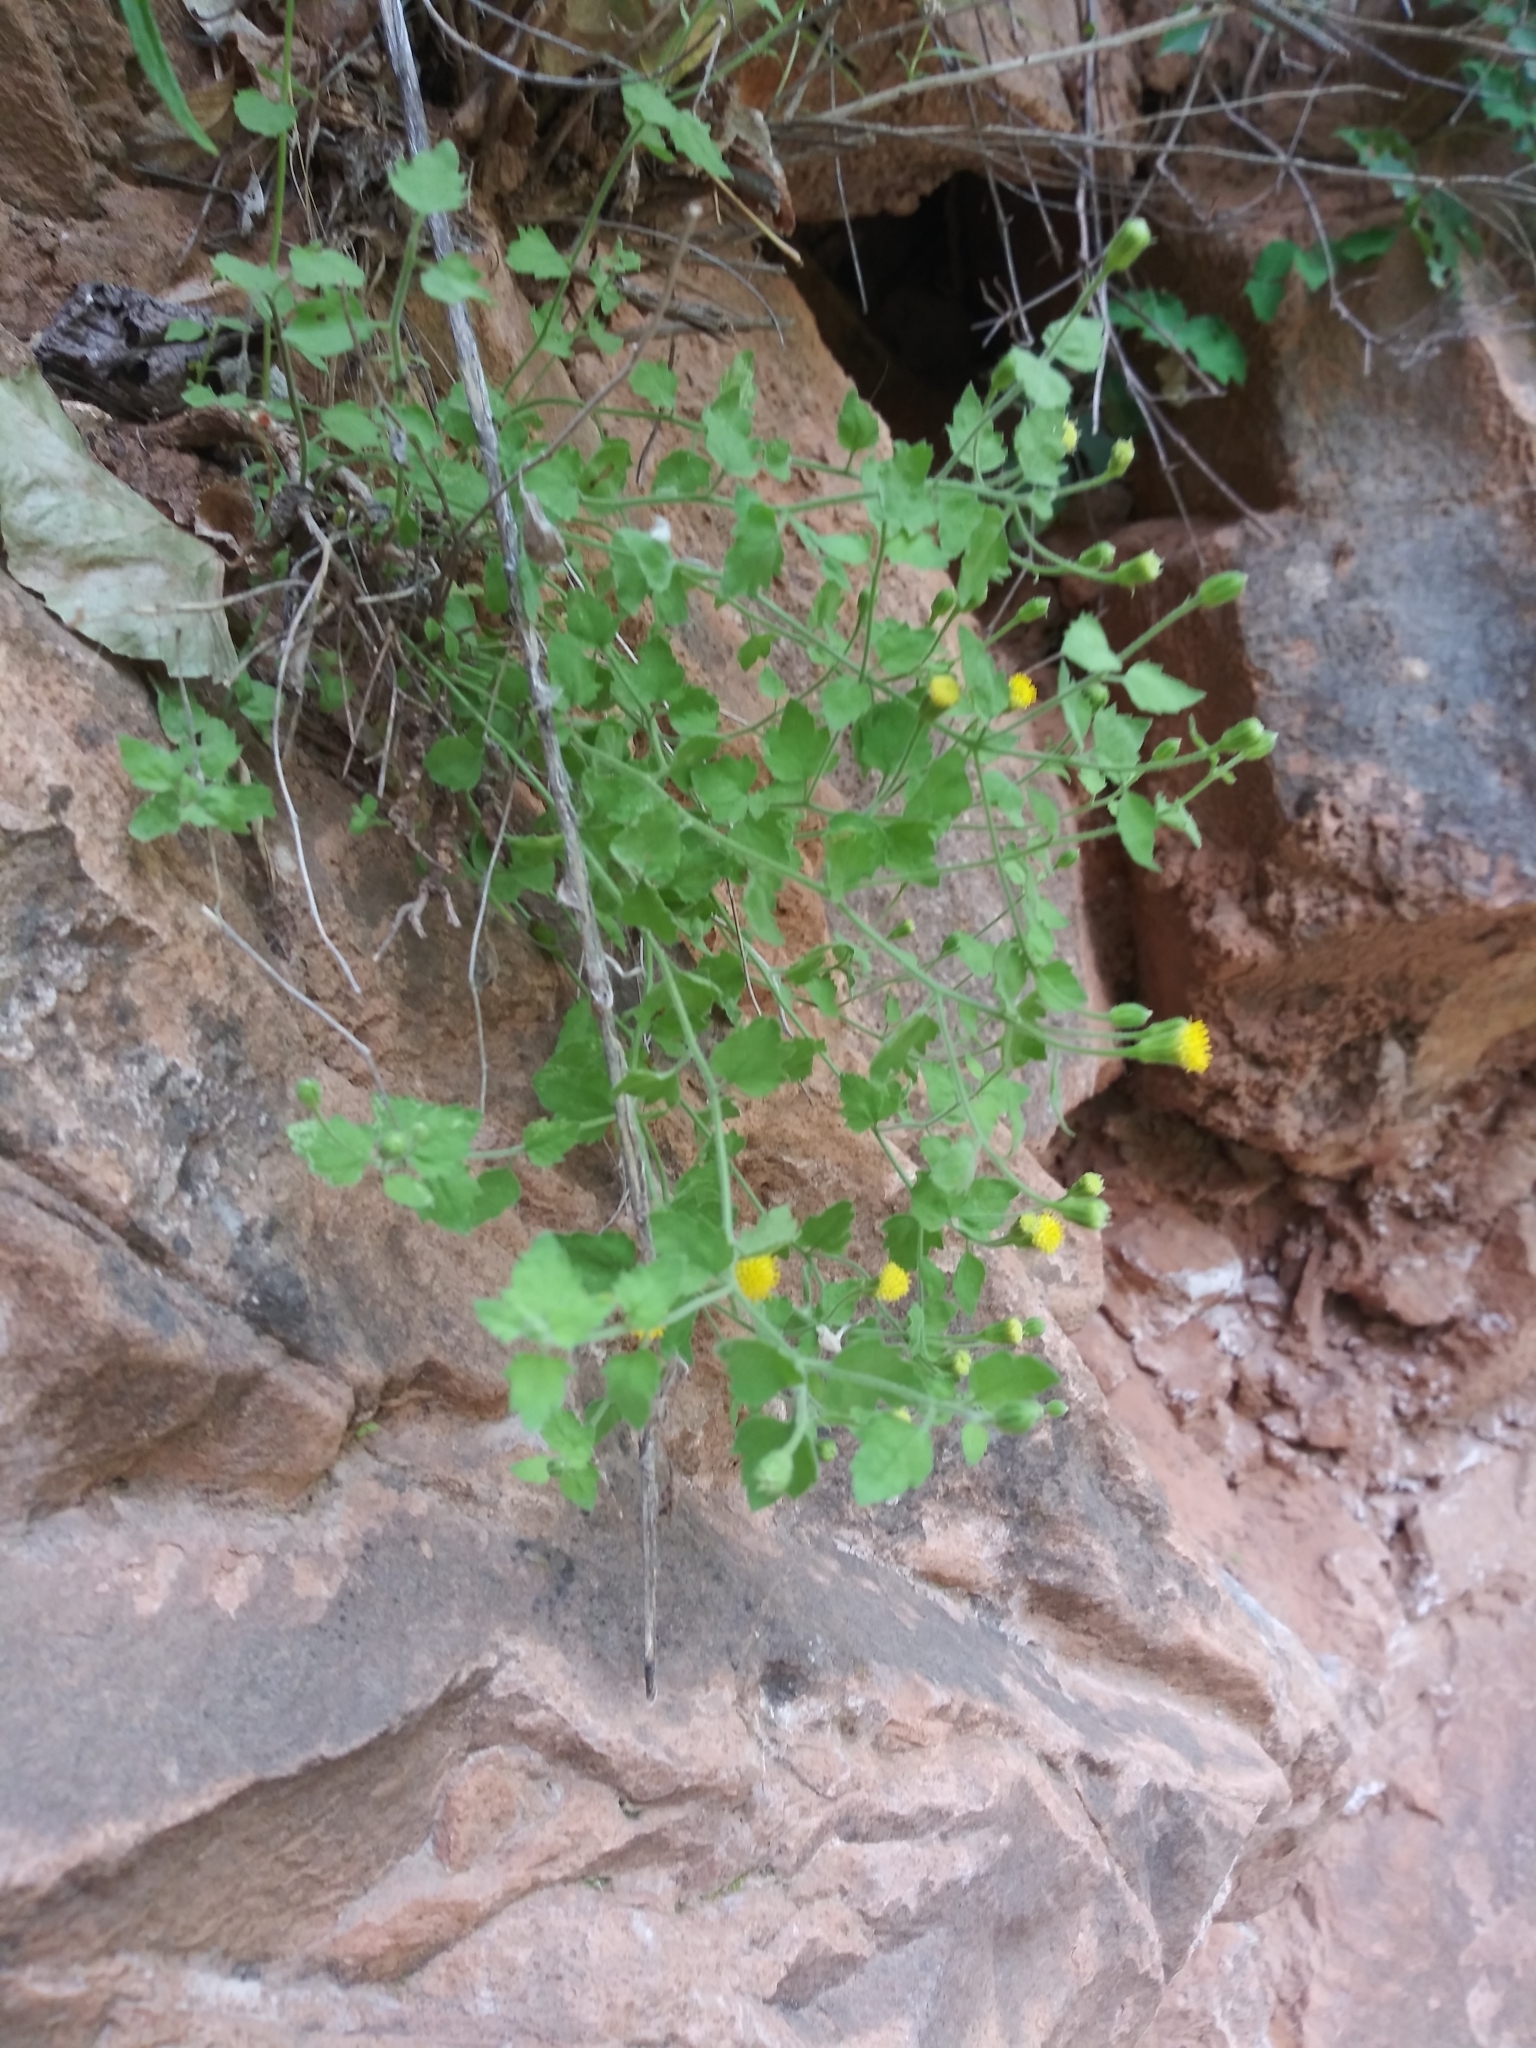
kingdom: Plantae
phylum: Tracheophyta
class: Magnoliopsida
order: Asterales
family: Asteraceae
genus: Laphamia
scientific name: Laphamia sanchezii
